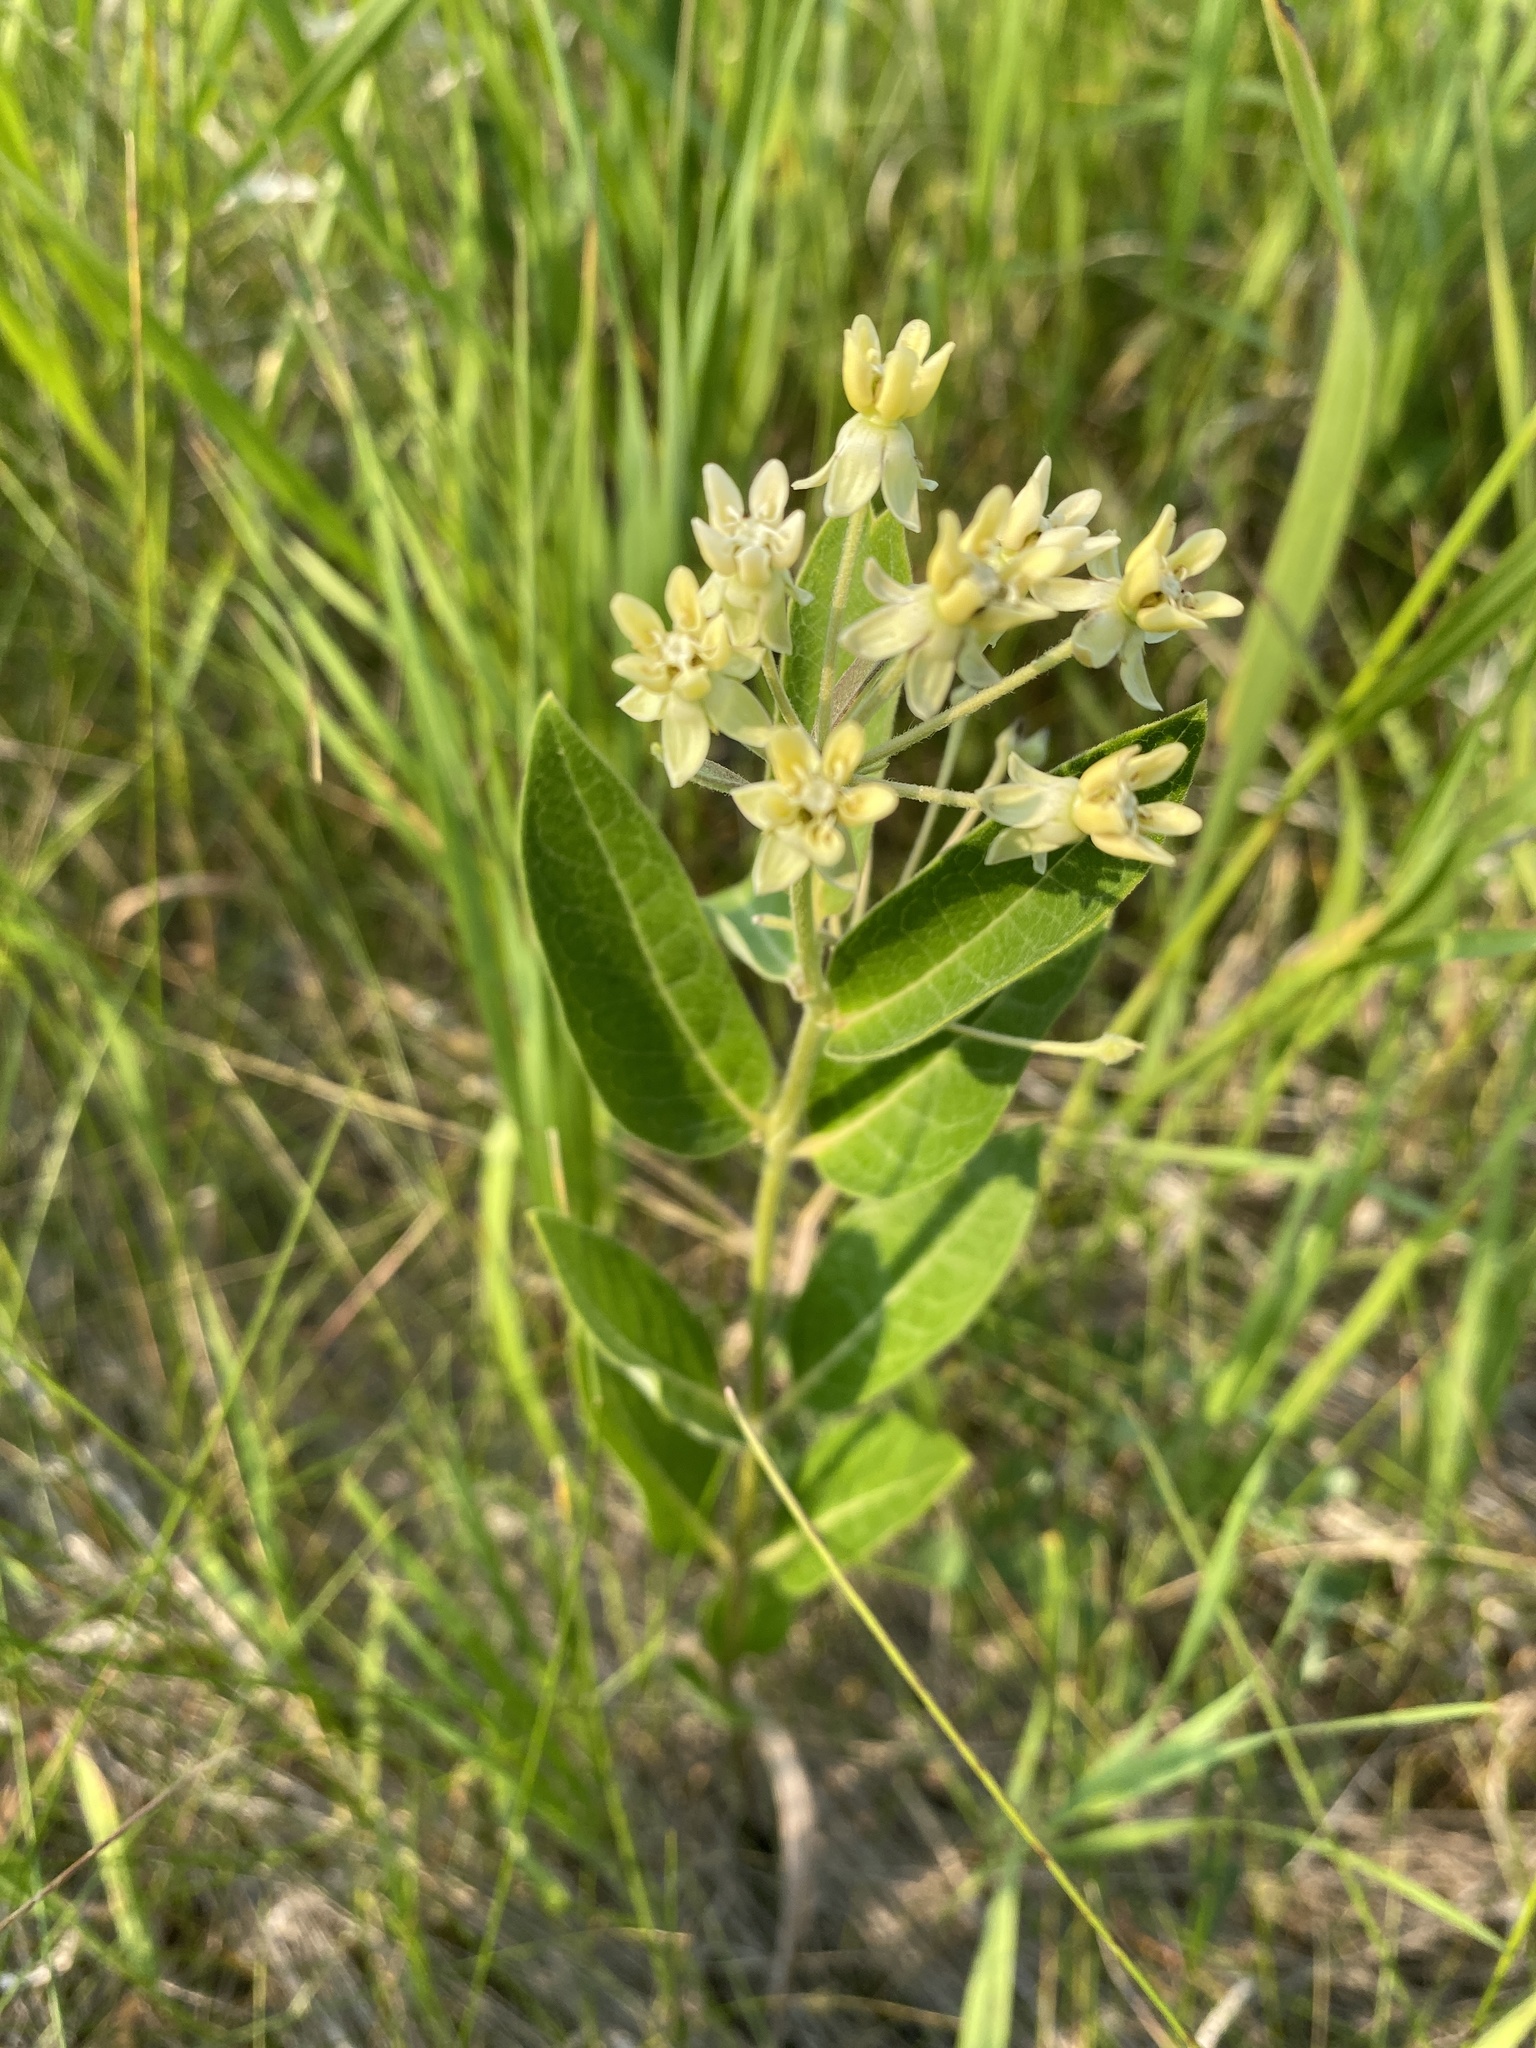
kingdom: Plantae
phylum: Tracheophyta
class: Magnoliopsida
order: Gentianales
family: Apocynaceae
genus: Asclepias
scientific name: Asclepias ovalifolia
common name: Dwarf milkweed
